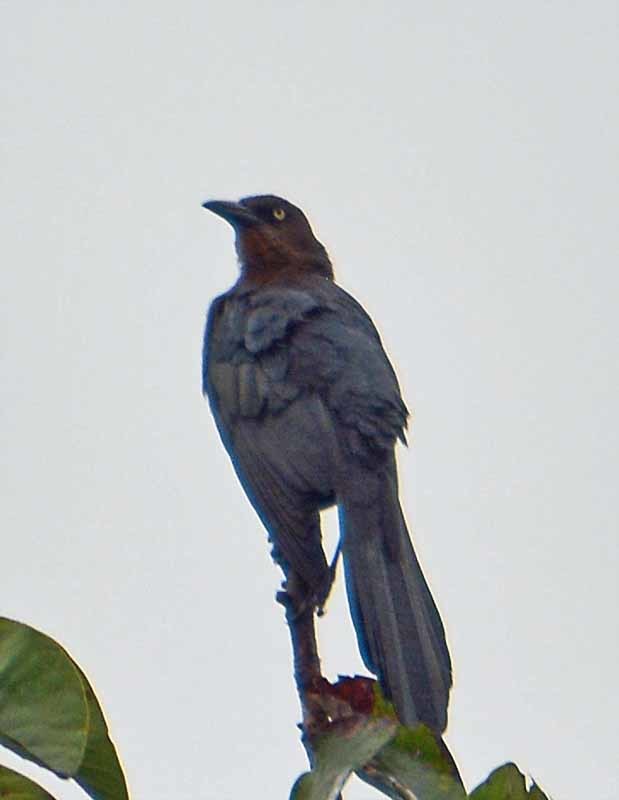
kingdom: Animalia
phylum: Chordata
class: Aves
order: Passeriformes
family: Icteridae
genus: Quiscalus
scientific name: Quiscalus mexicanus
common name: Great-tailed grackle
